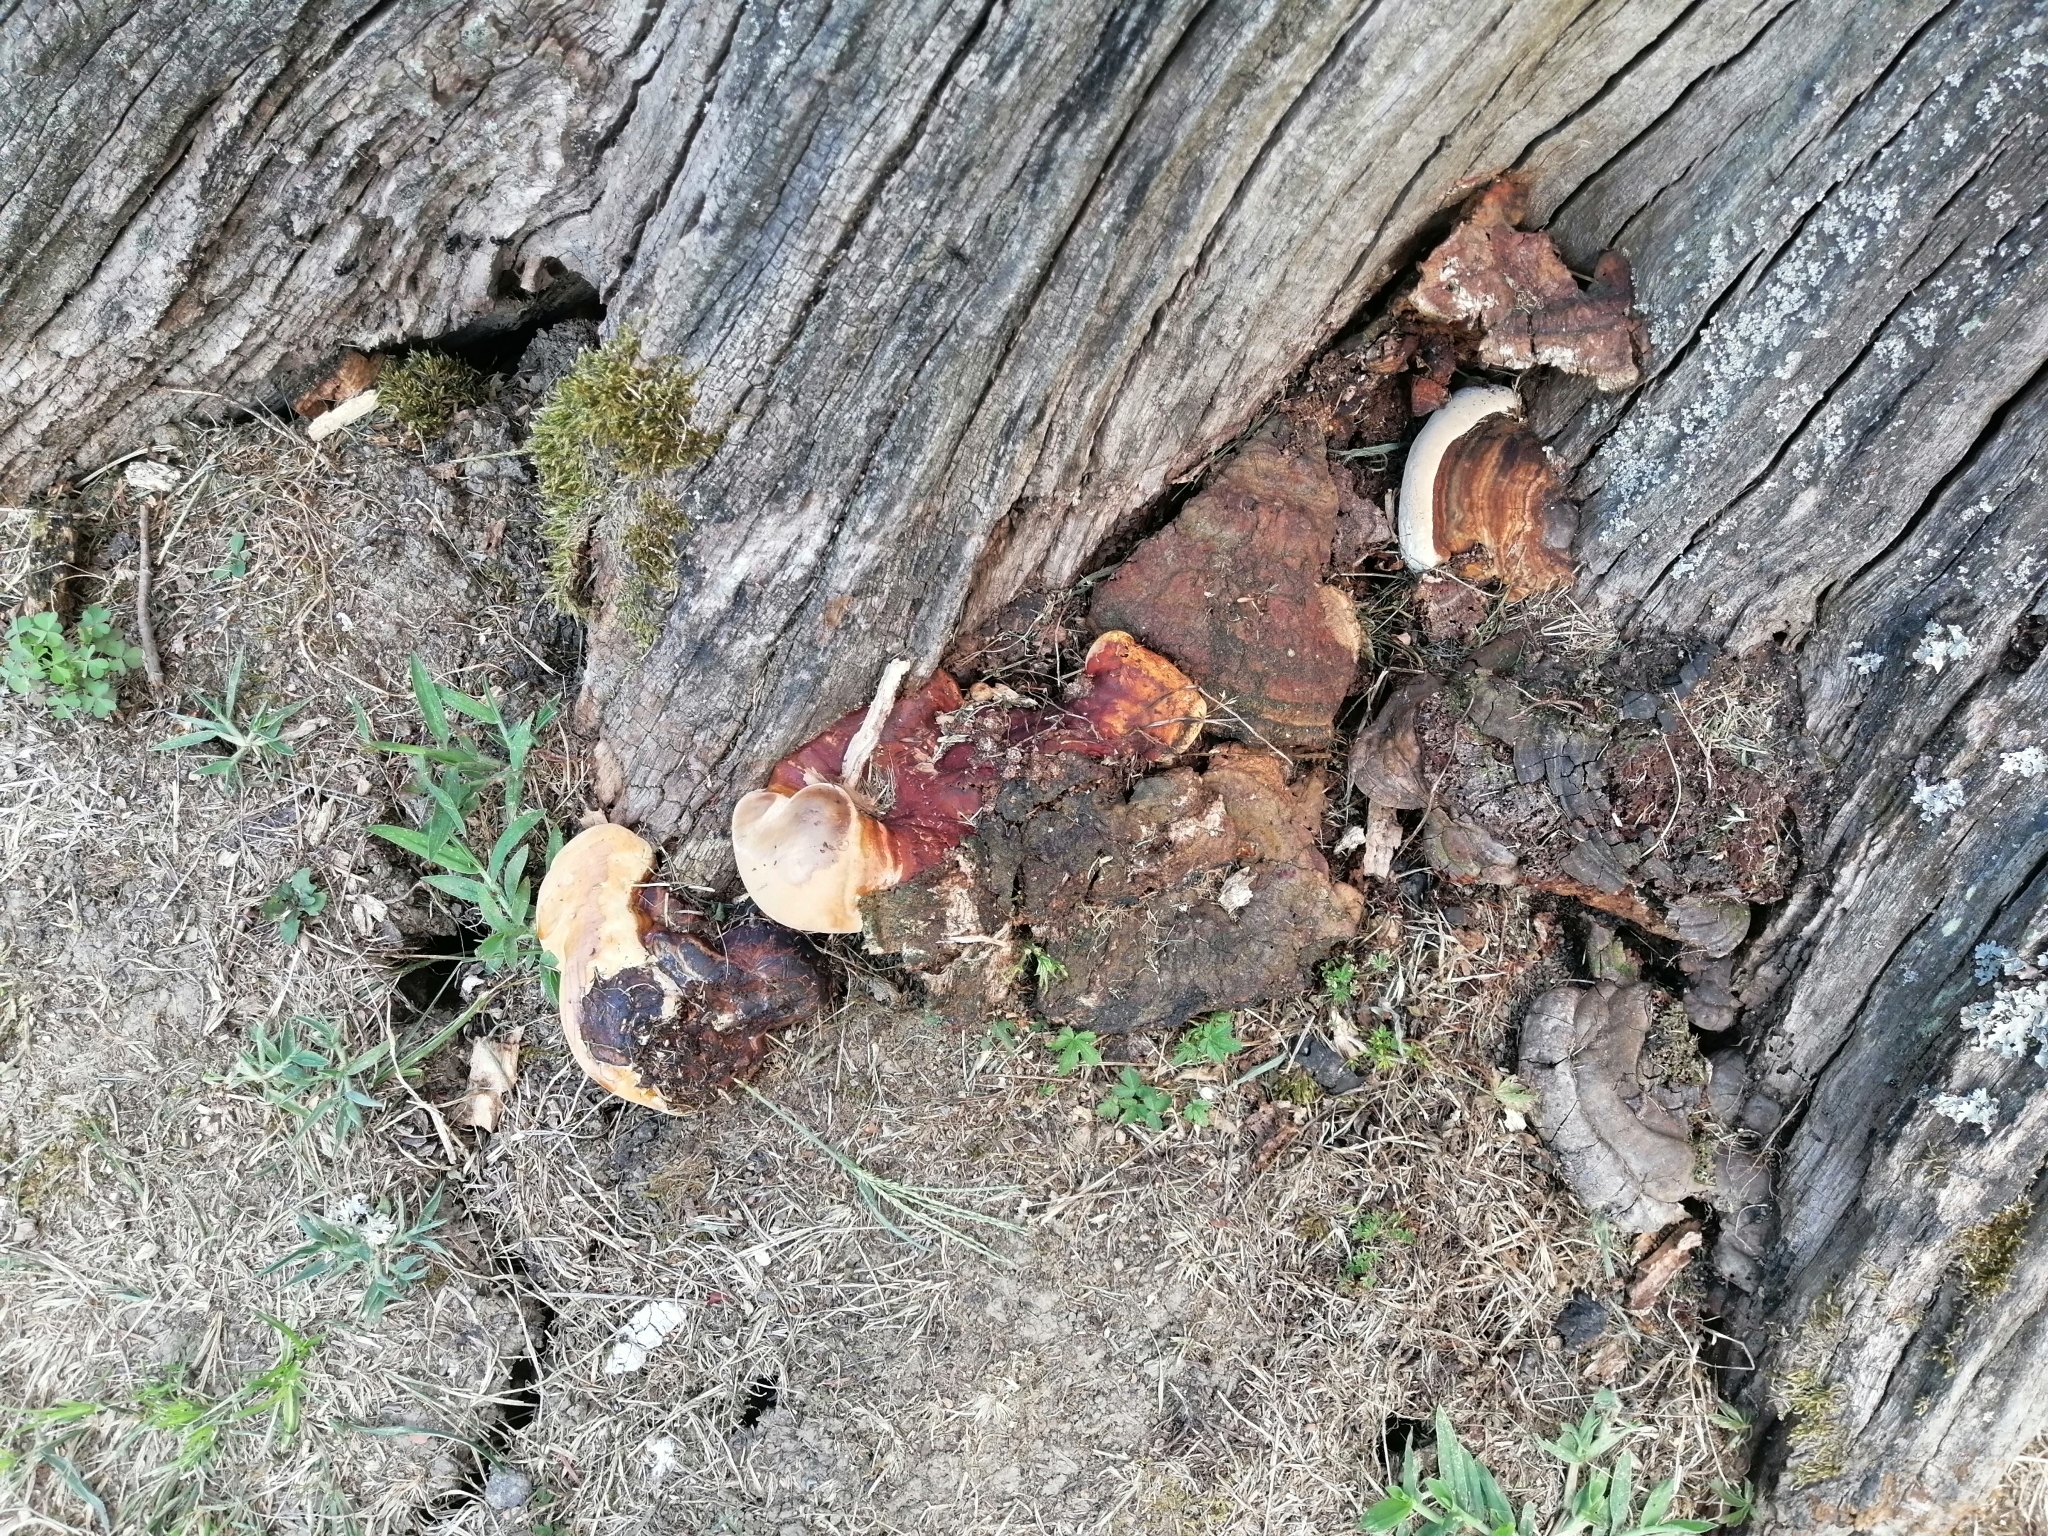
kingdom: Fungi
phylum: Basidiomycota
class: Agaricomycetes
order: Polyporales
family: Polyporaceae
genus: Ganoderma
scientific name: Ganoderma resinaceum
